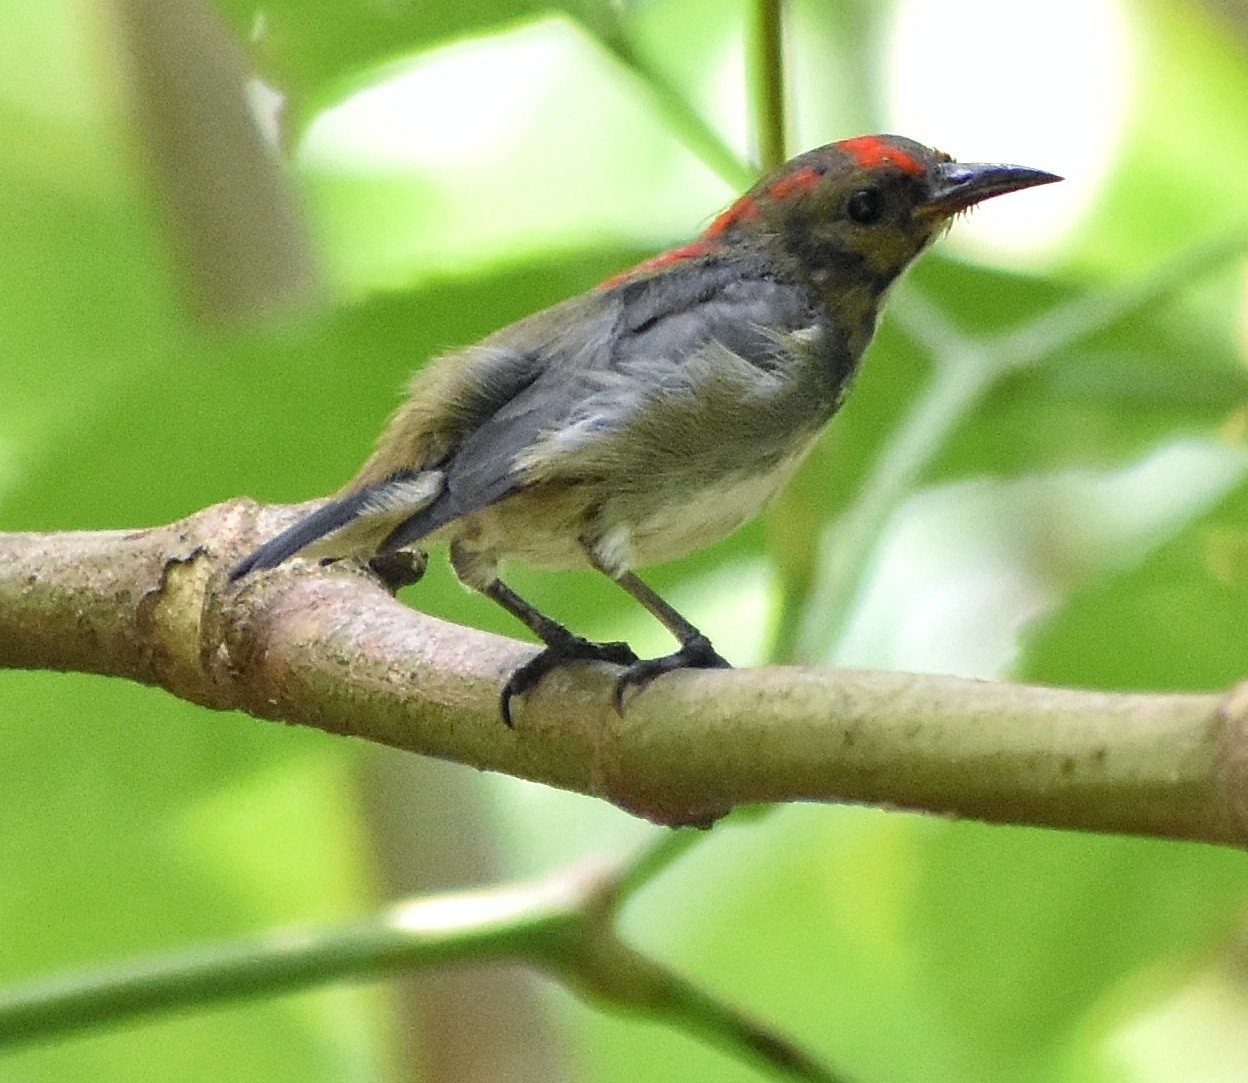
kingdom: Animalia
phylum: Chordata
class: Aves
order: Passeriformes
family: Dicaeidae
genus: Dicaeum
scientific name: Dicaeum cruentatum
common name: Scarlet-backed flowerpecker
